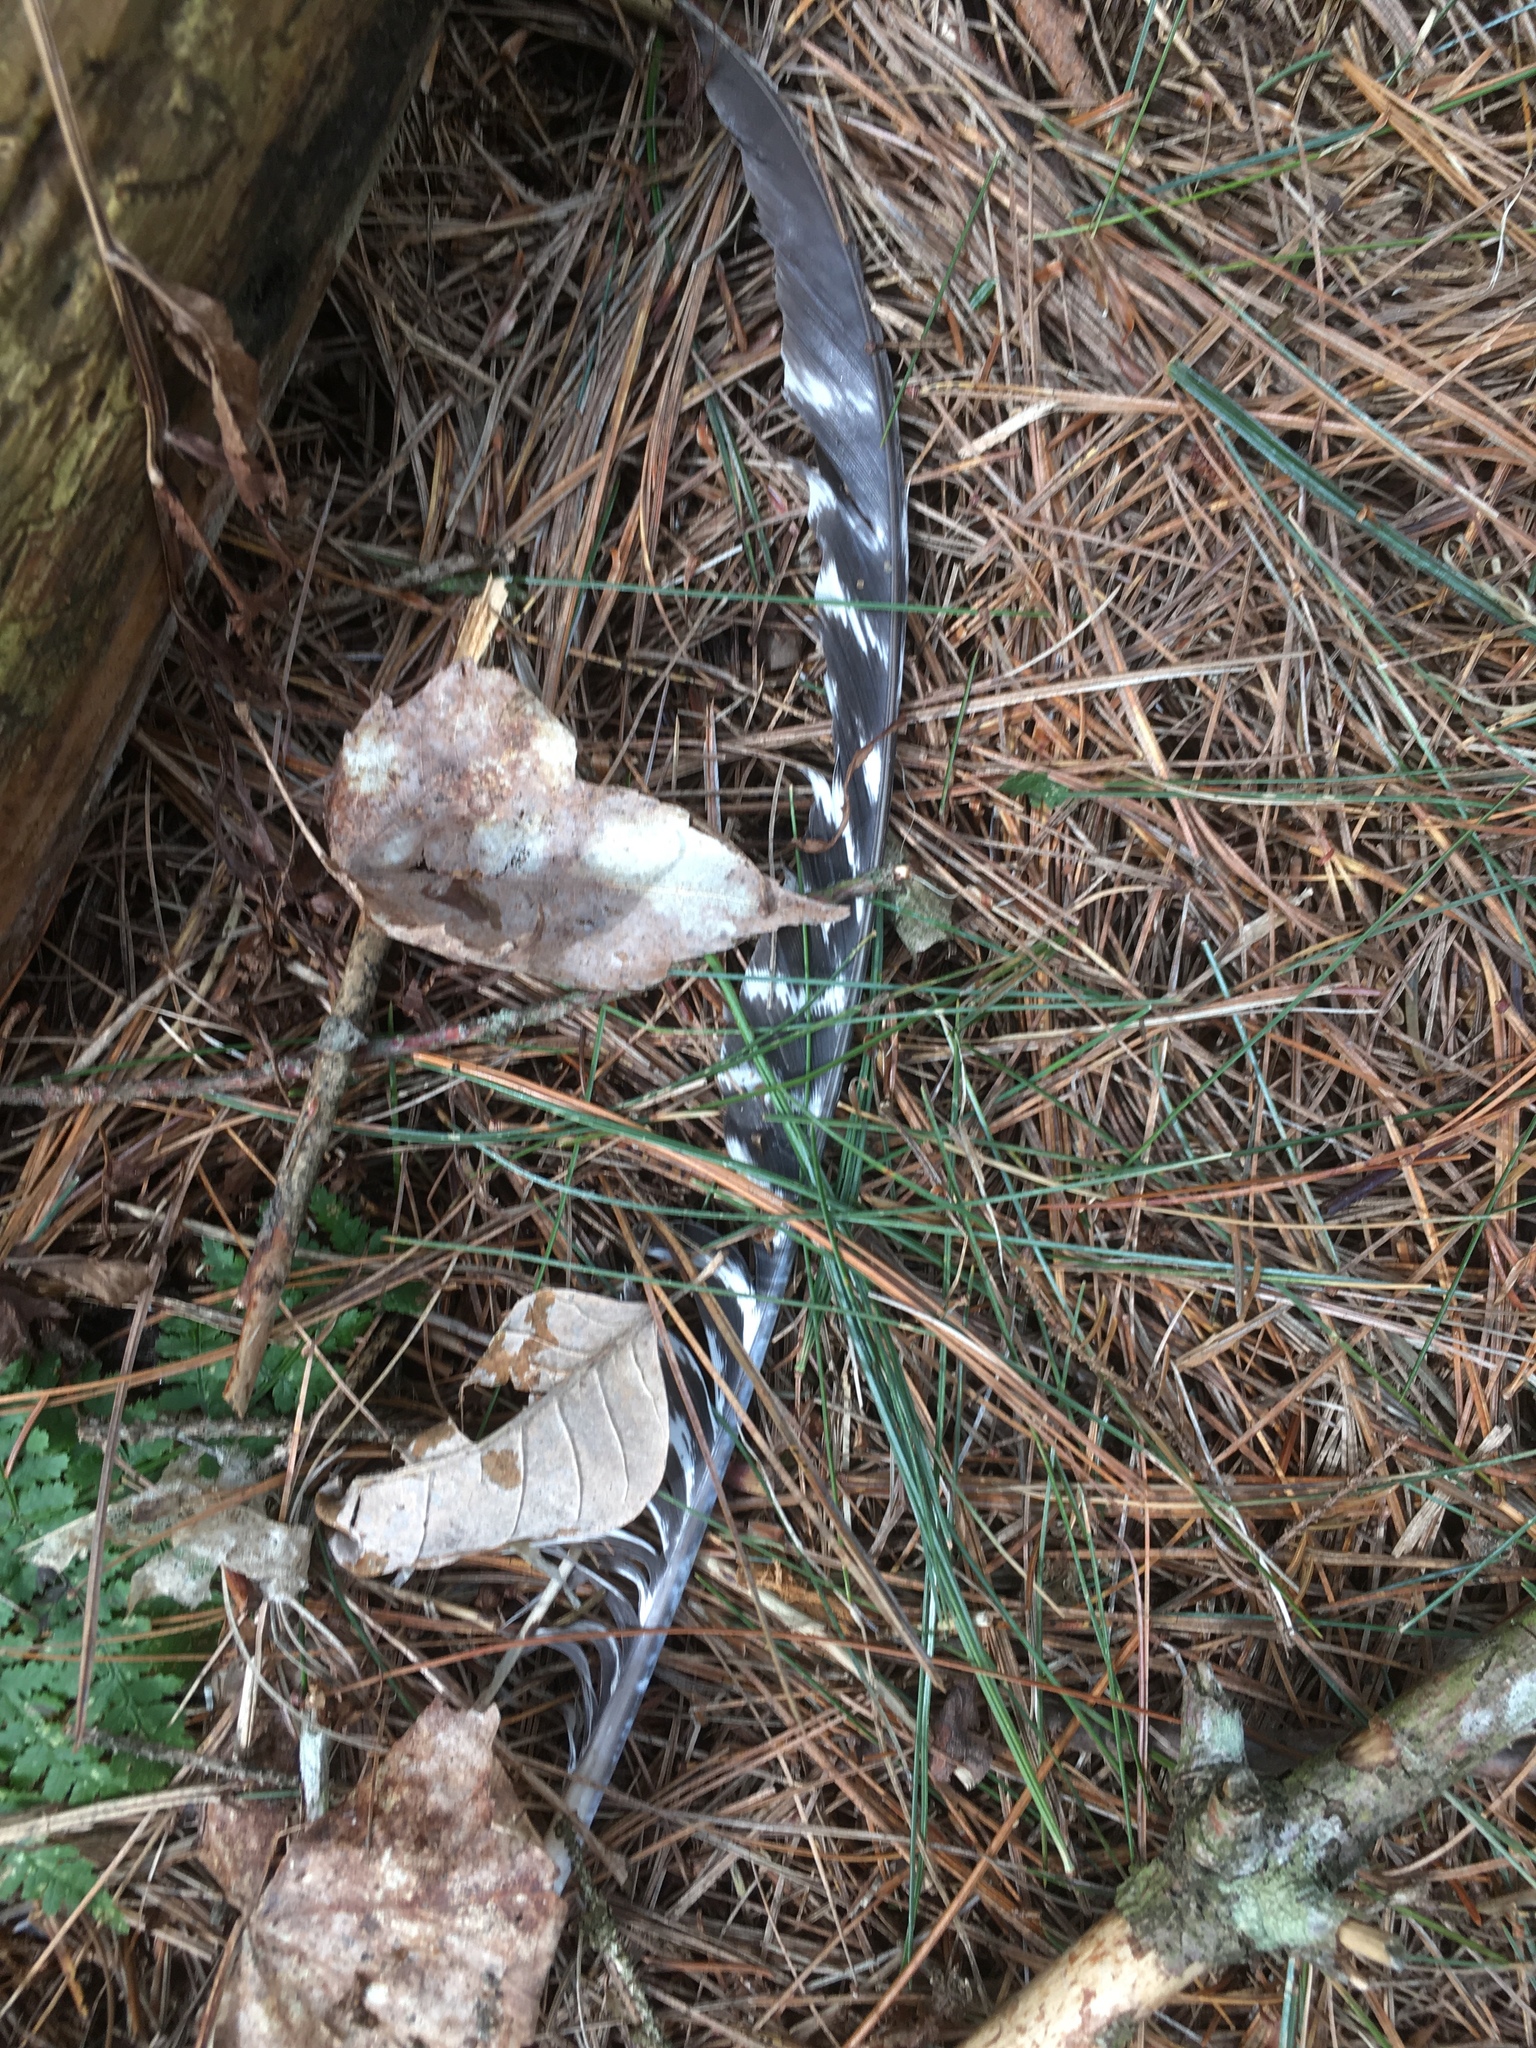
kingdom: Animalia
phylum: Chordata
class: Aves
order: Galliformes
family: Phasianidae
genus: Meleagris
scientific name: Meleagris gallopavo
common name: Wild turkey
